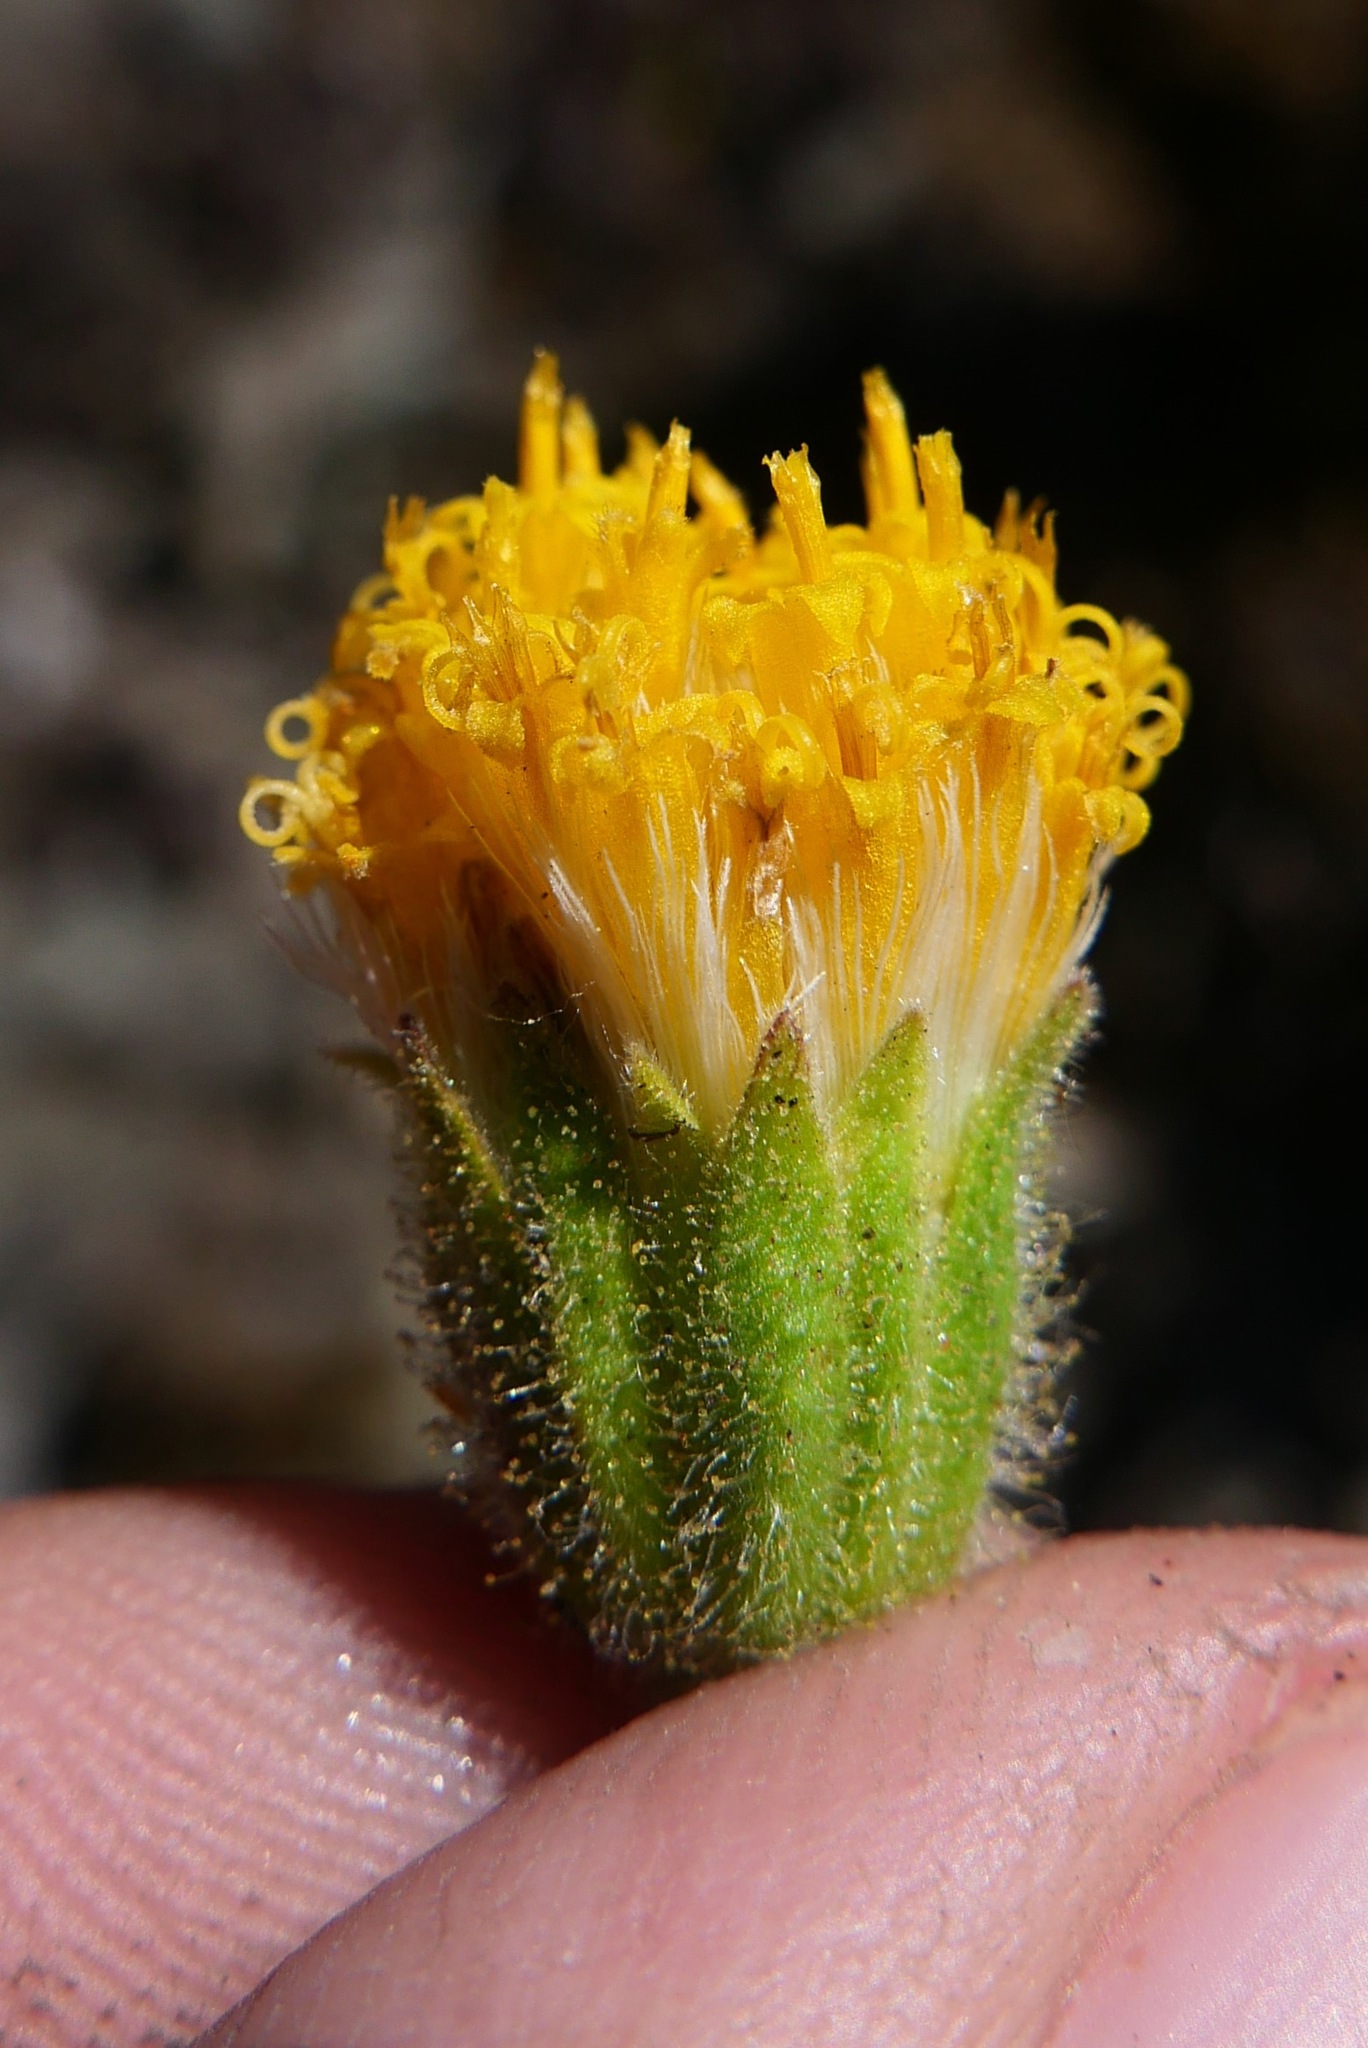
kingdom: Plantae
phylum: Tracheophyta
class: Magnoliopsida
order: Asterales
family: Asteraceae
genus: Arnica
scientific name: Arnica discoidea
